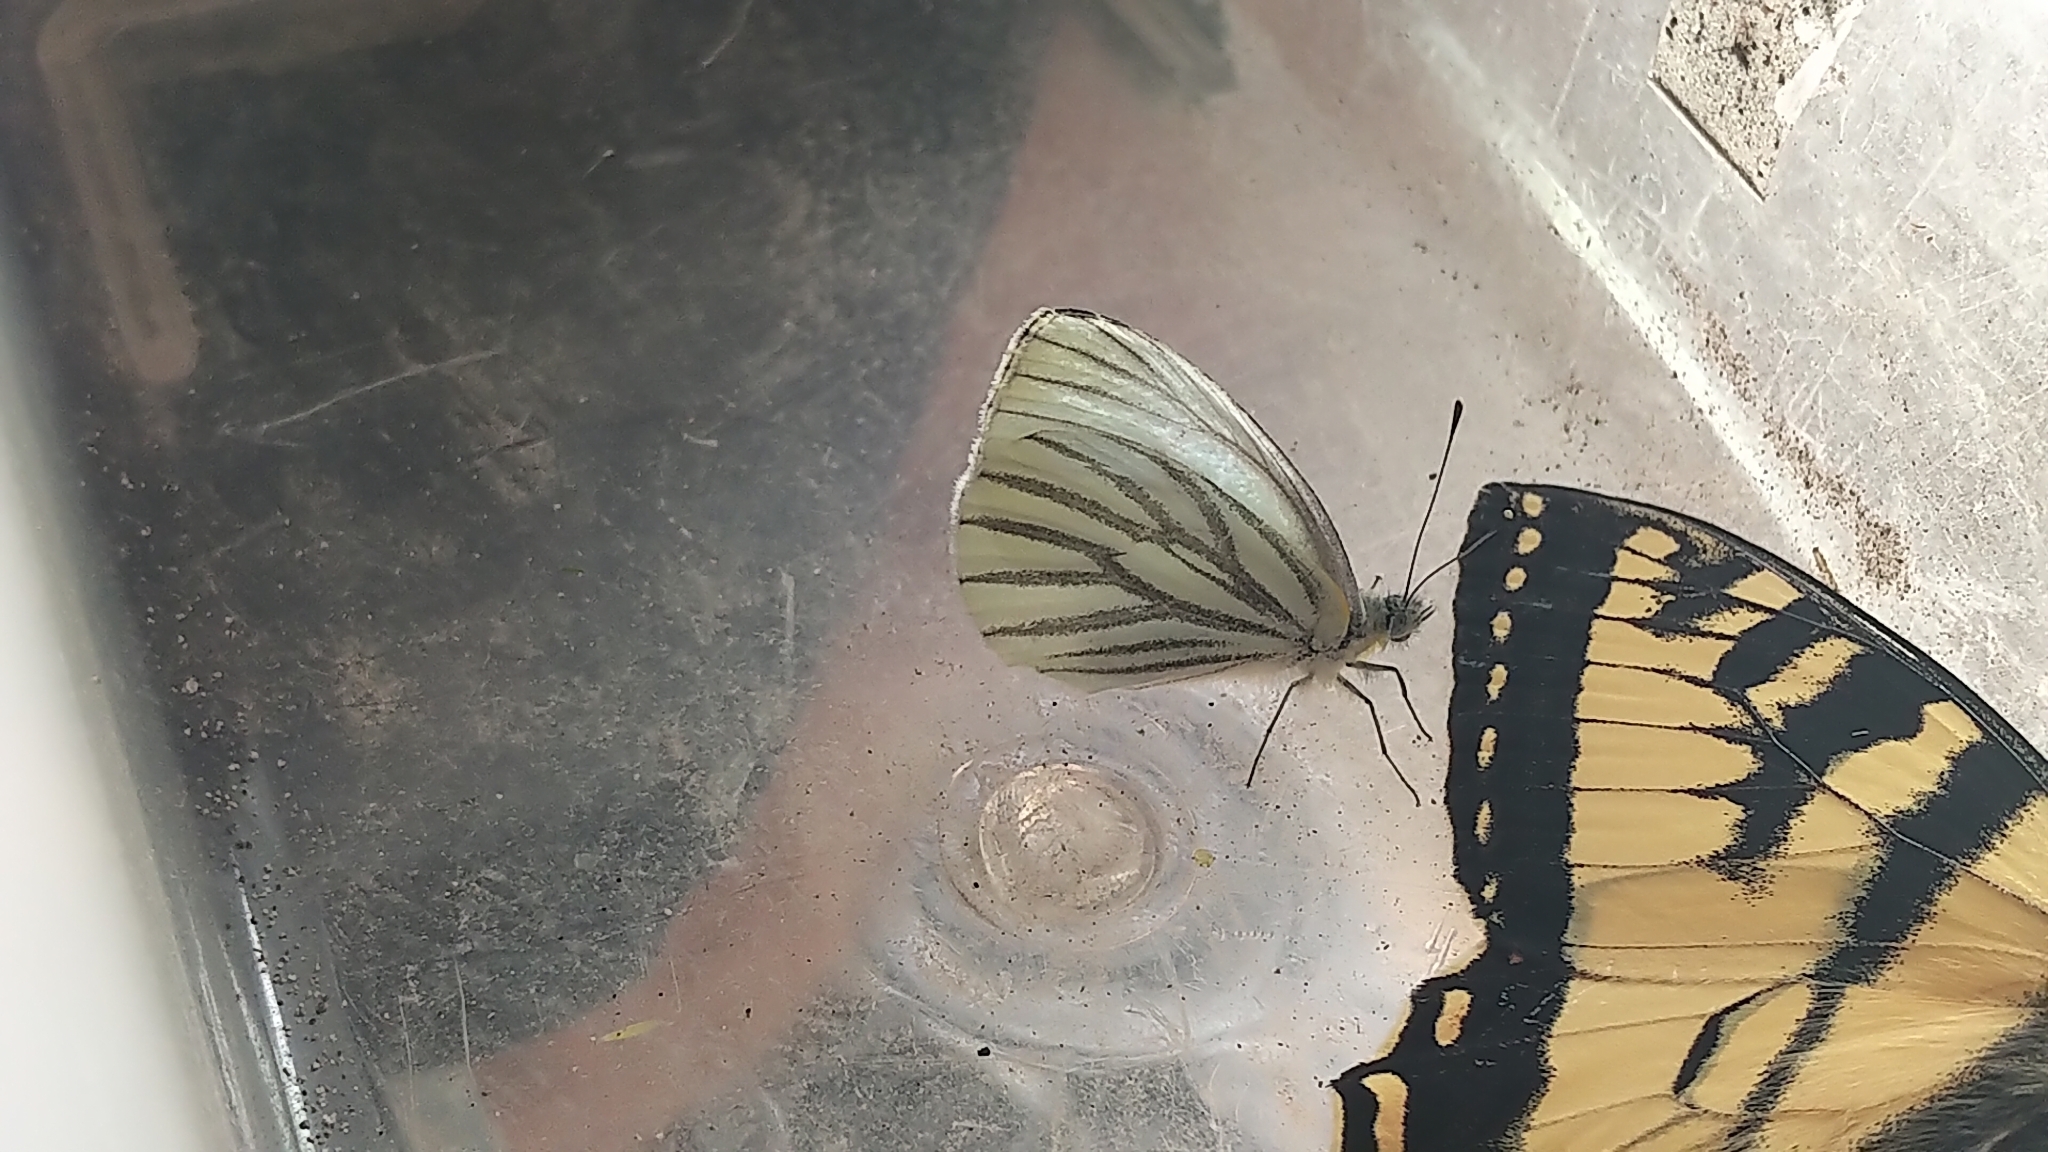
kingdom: Animalia
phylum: Arthropoda
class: Insecta
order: Lepidoptera
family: Pieridae
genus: Pieris
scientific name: Pieris oleracea
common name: Mustard white
